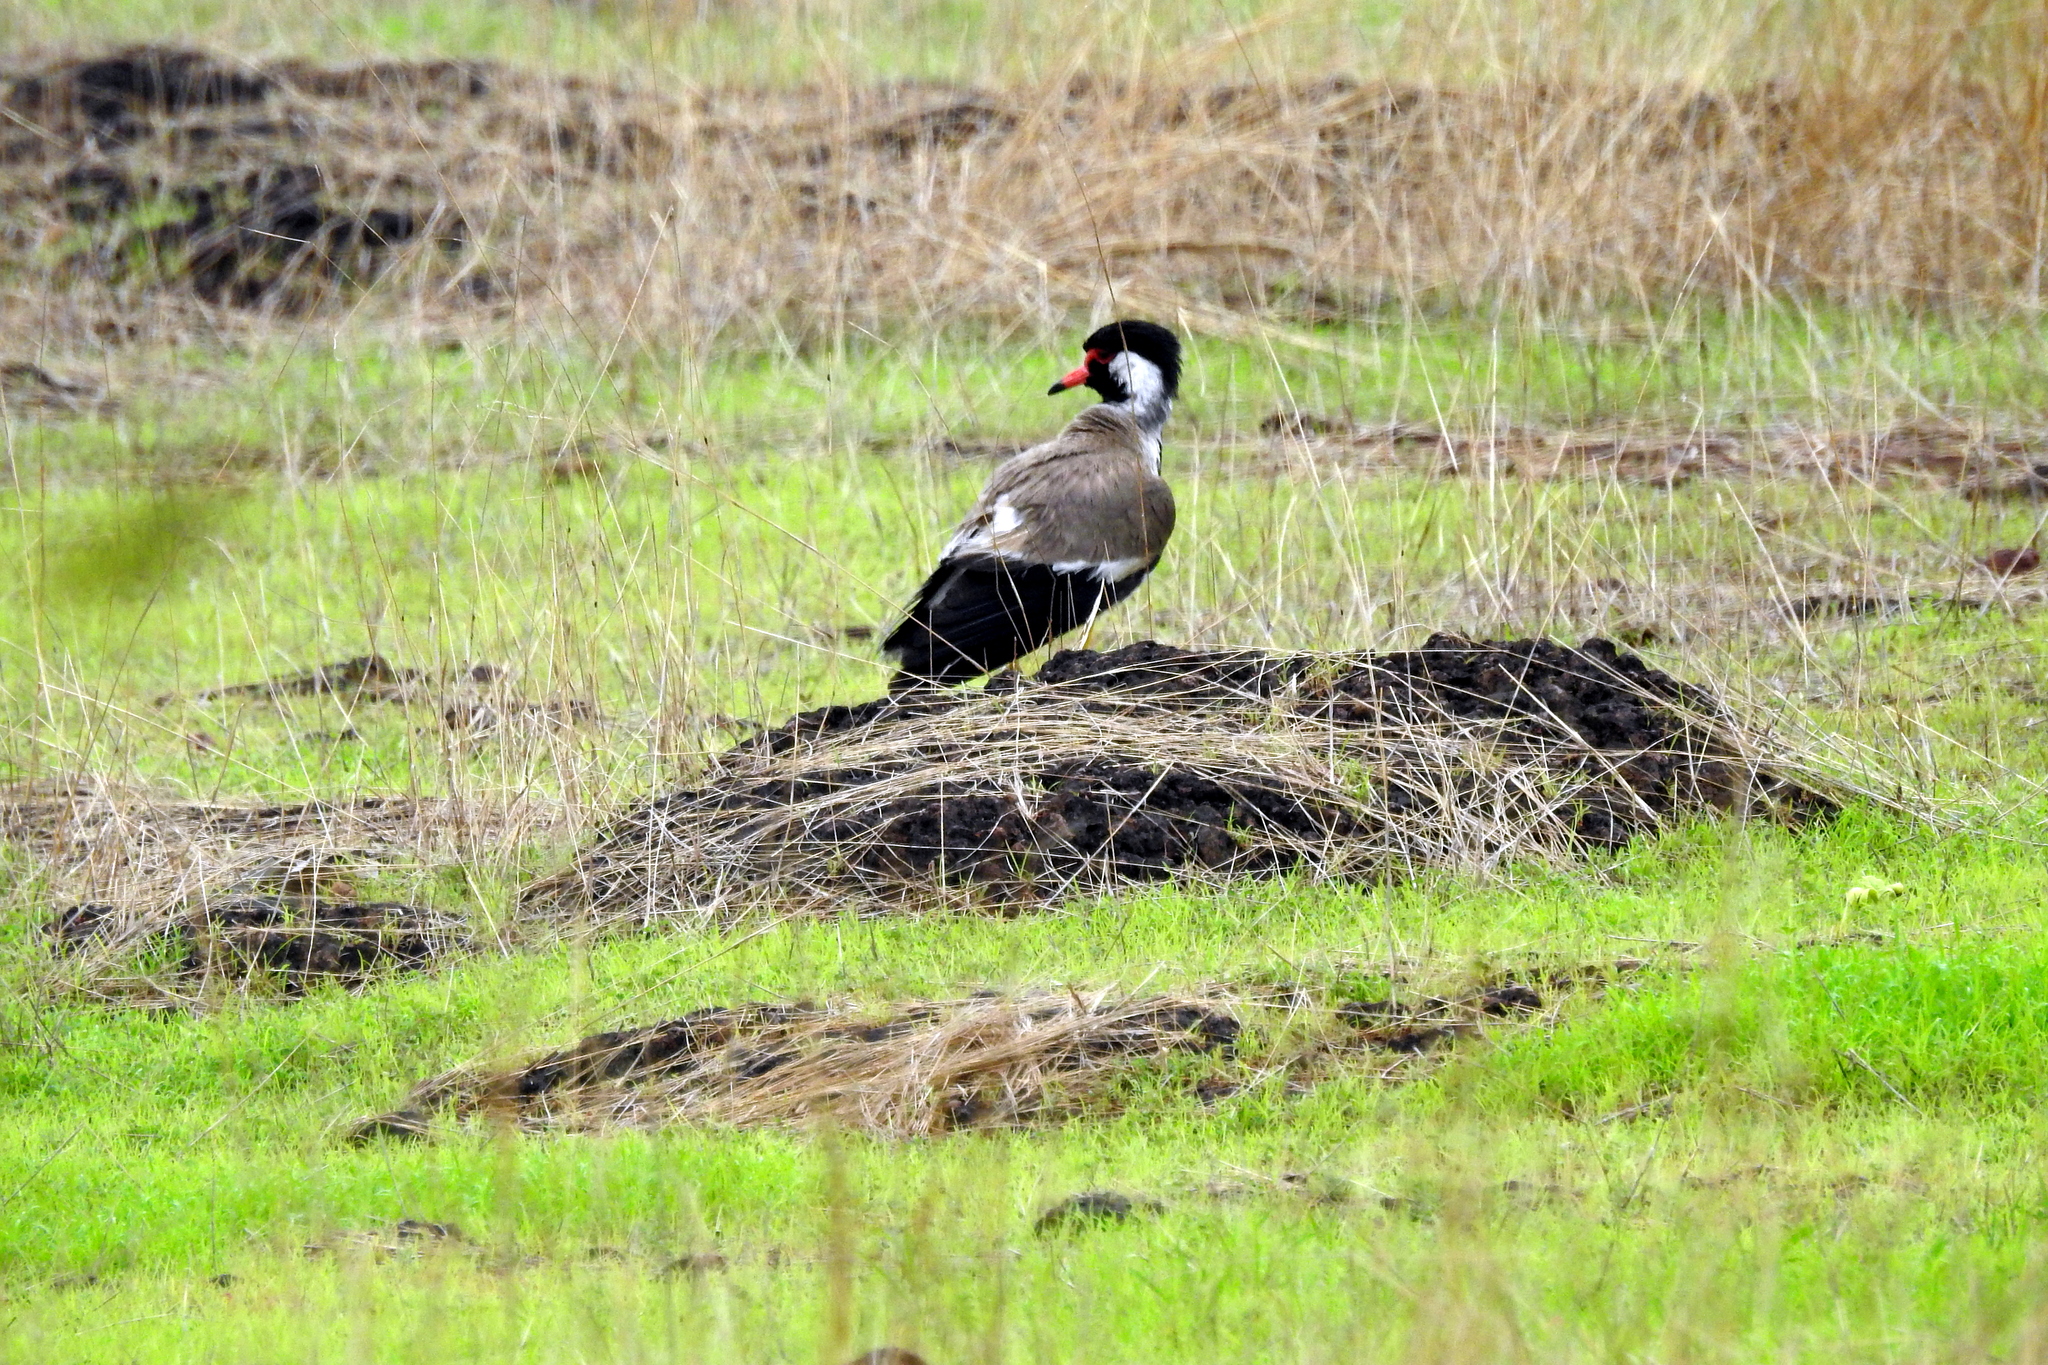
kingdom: Animalia
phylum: Chordata
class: Aves
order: Charadriiformes
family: Charadriidae
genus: Vanellus
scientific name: Vanellus indicus
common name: Red-wattled lapwing
